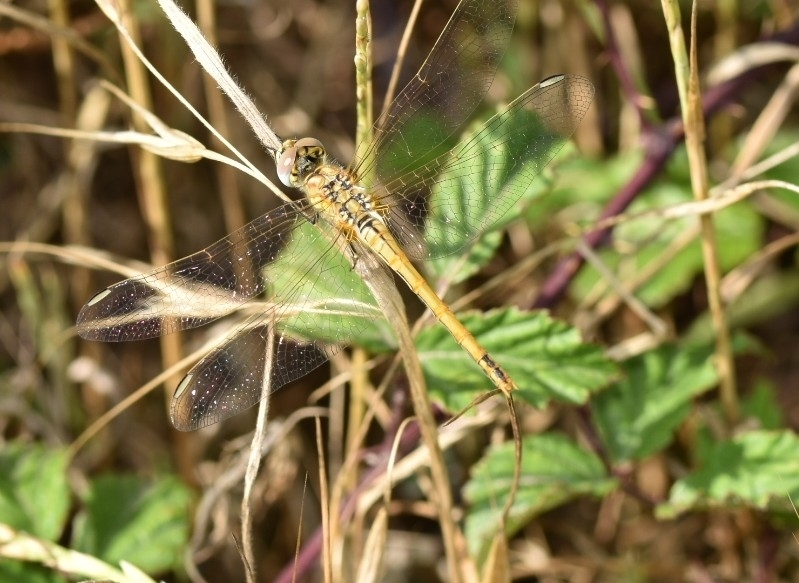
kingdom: Animalia
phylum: Arthropoda
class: Insecta
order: Odonata
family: Libellulidae
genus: Sympetrum
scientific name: Sympetrum fonscolombii
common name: Red-veined darter
